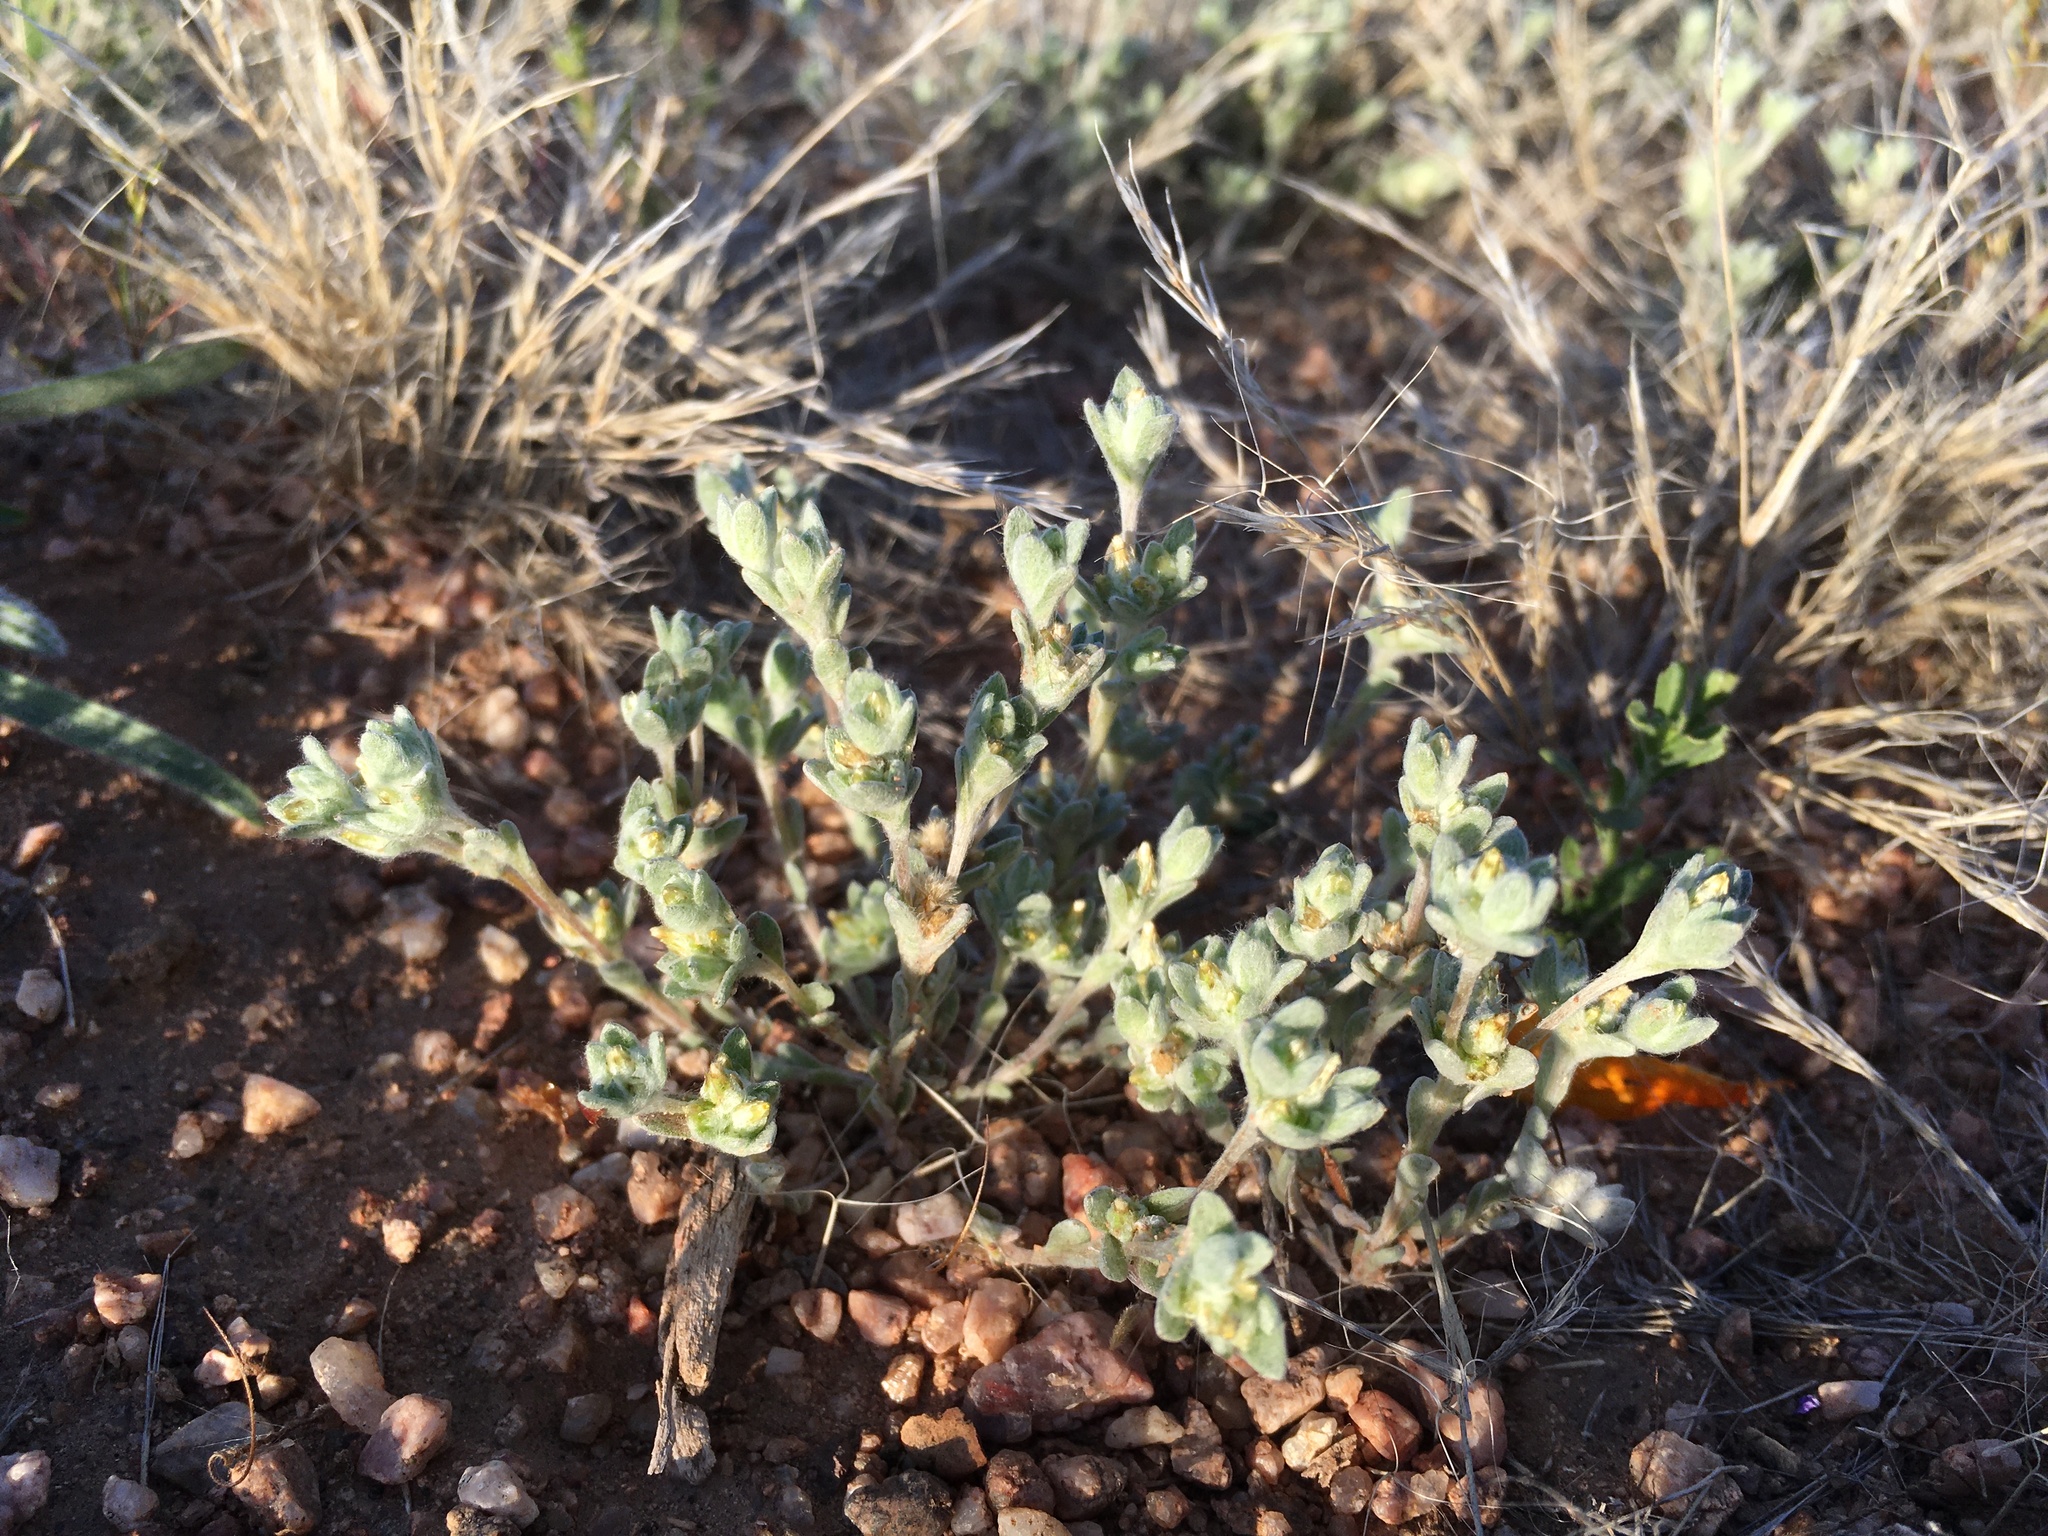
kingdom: Plantae
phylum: Tracheophyta
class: Magnoliopsida
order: Asterales
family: Asteraceae
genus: Logfia
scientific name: Logfia depressa
